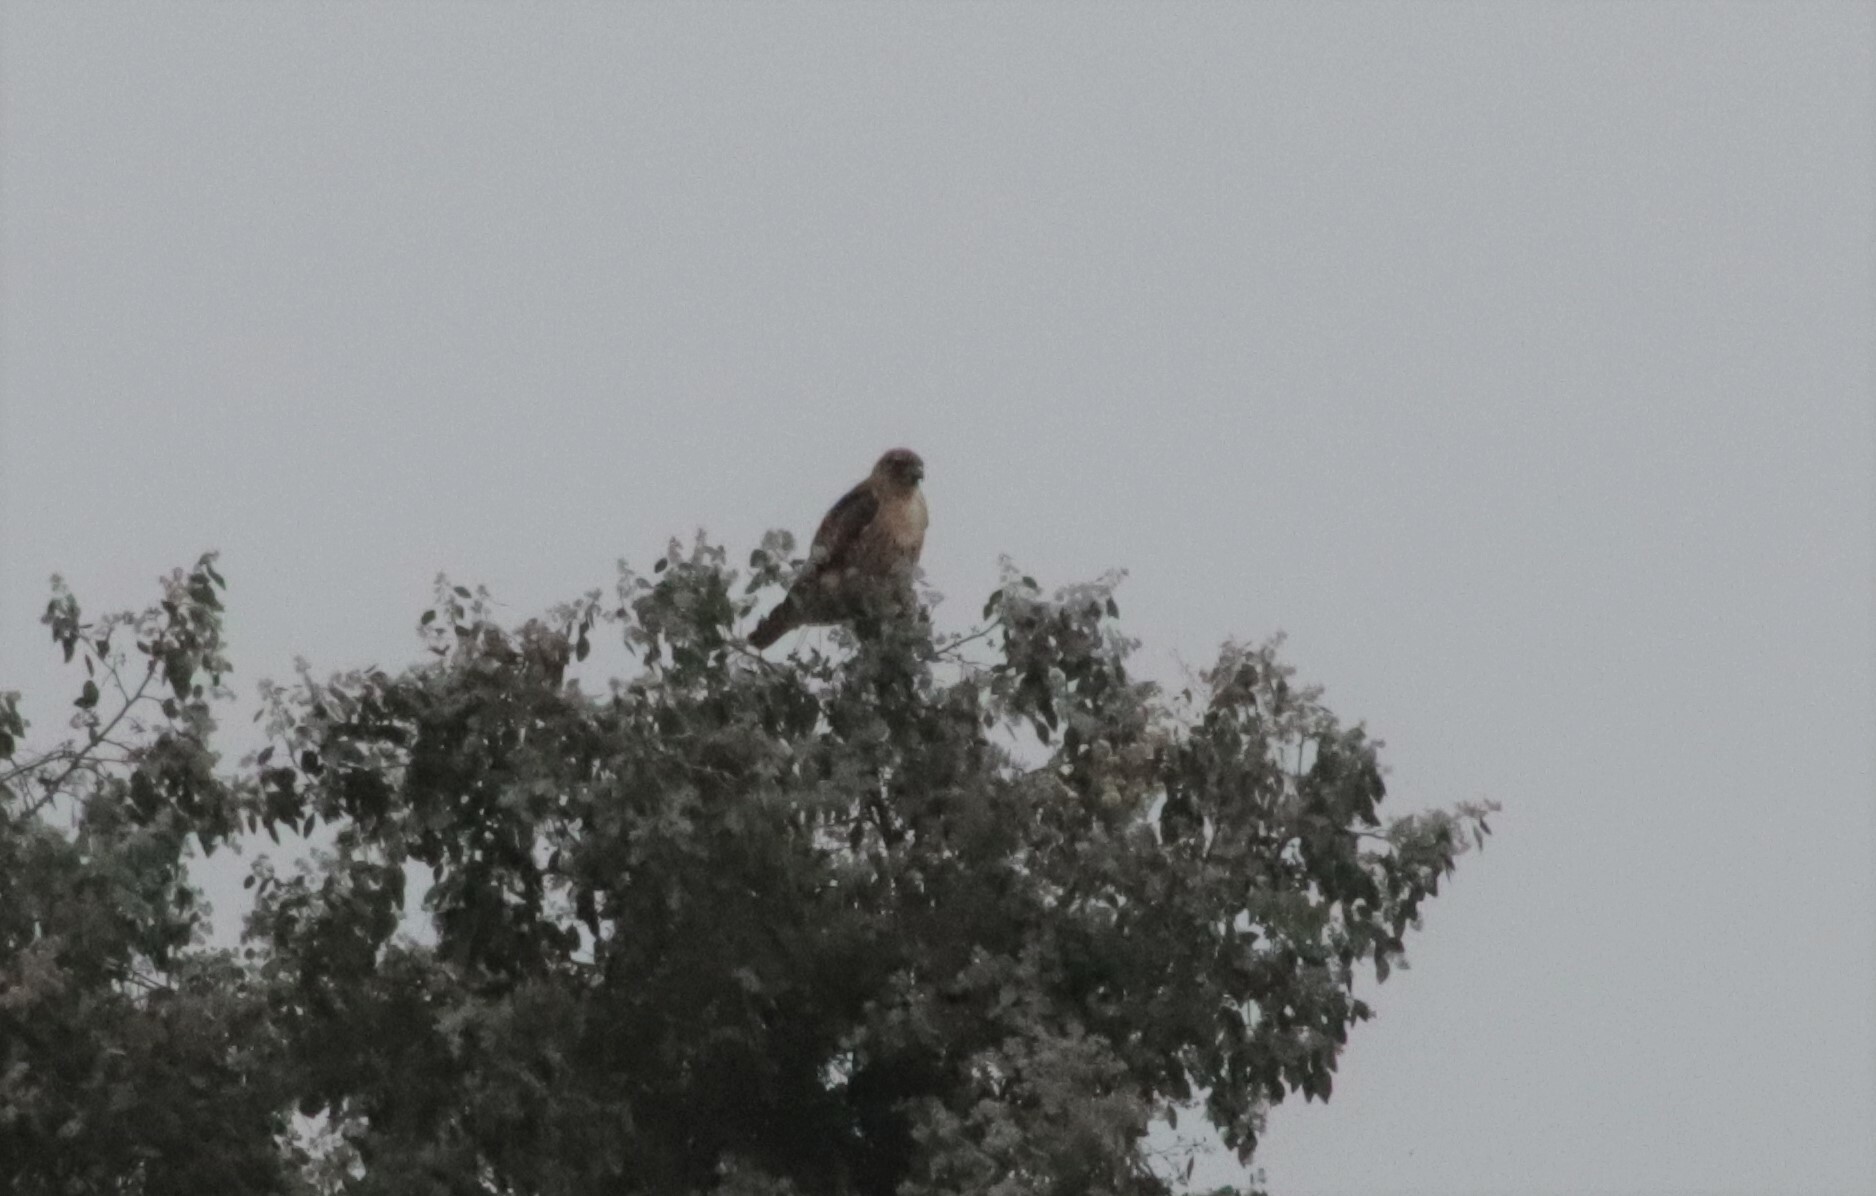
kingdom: Animalia
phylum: Chordata
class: Aves
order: Accipitriformes
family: Accipitridae
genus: Buteo
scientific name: Buteo jamaicensis
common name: Red-tailed hawk
